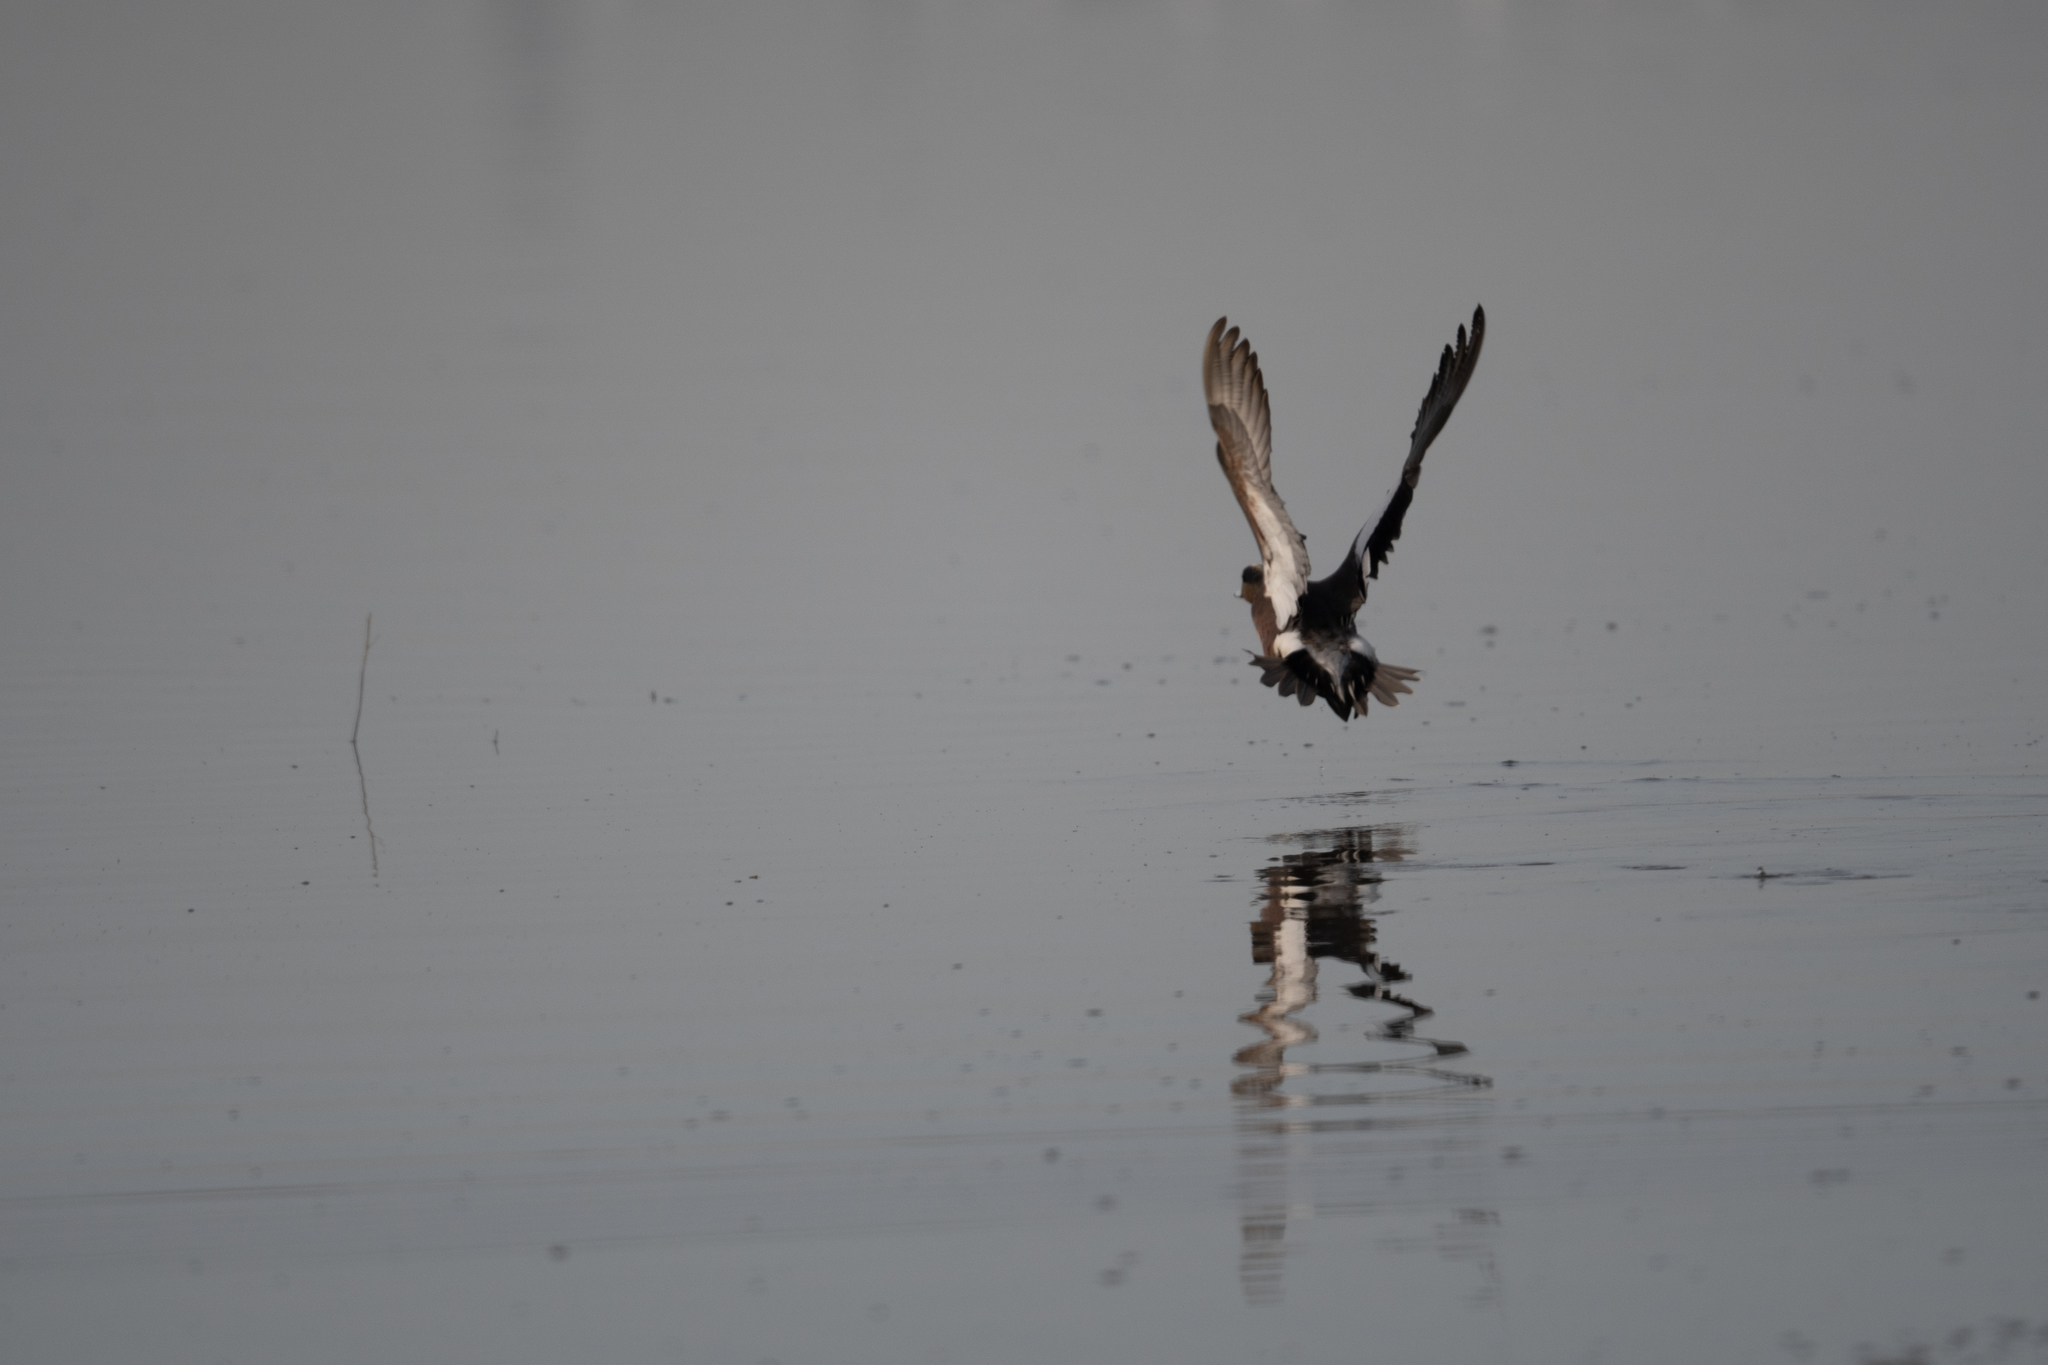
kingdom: Animalia
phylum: Chordata
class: Aves
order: Anseriformes
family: Anatidae
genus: Mareca
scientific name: Mareca americana
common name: American wigeon
